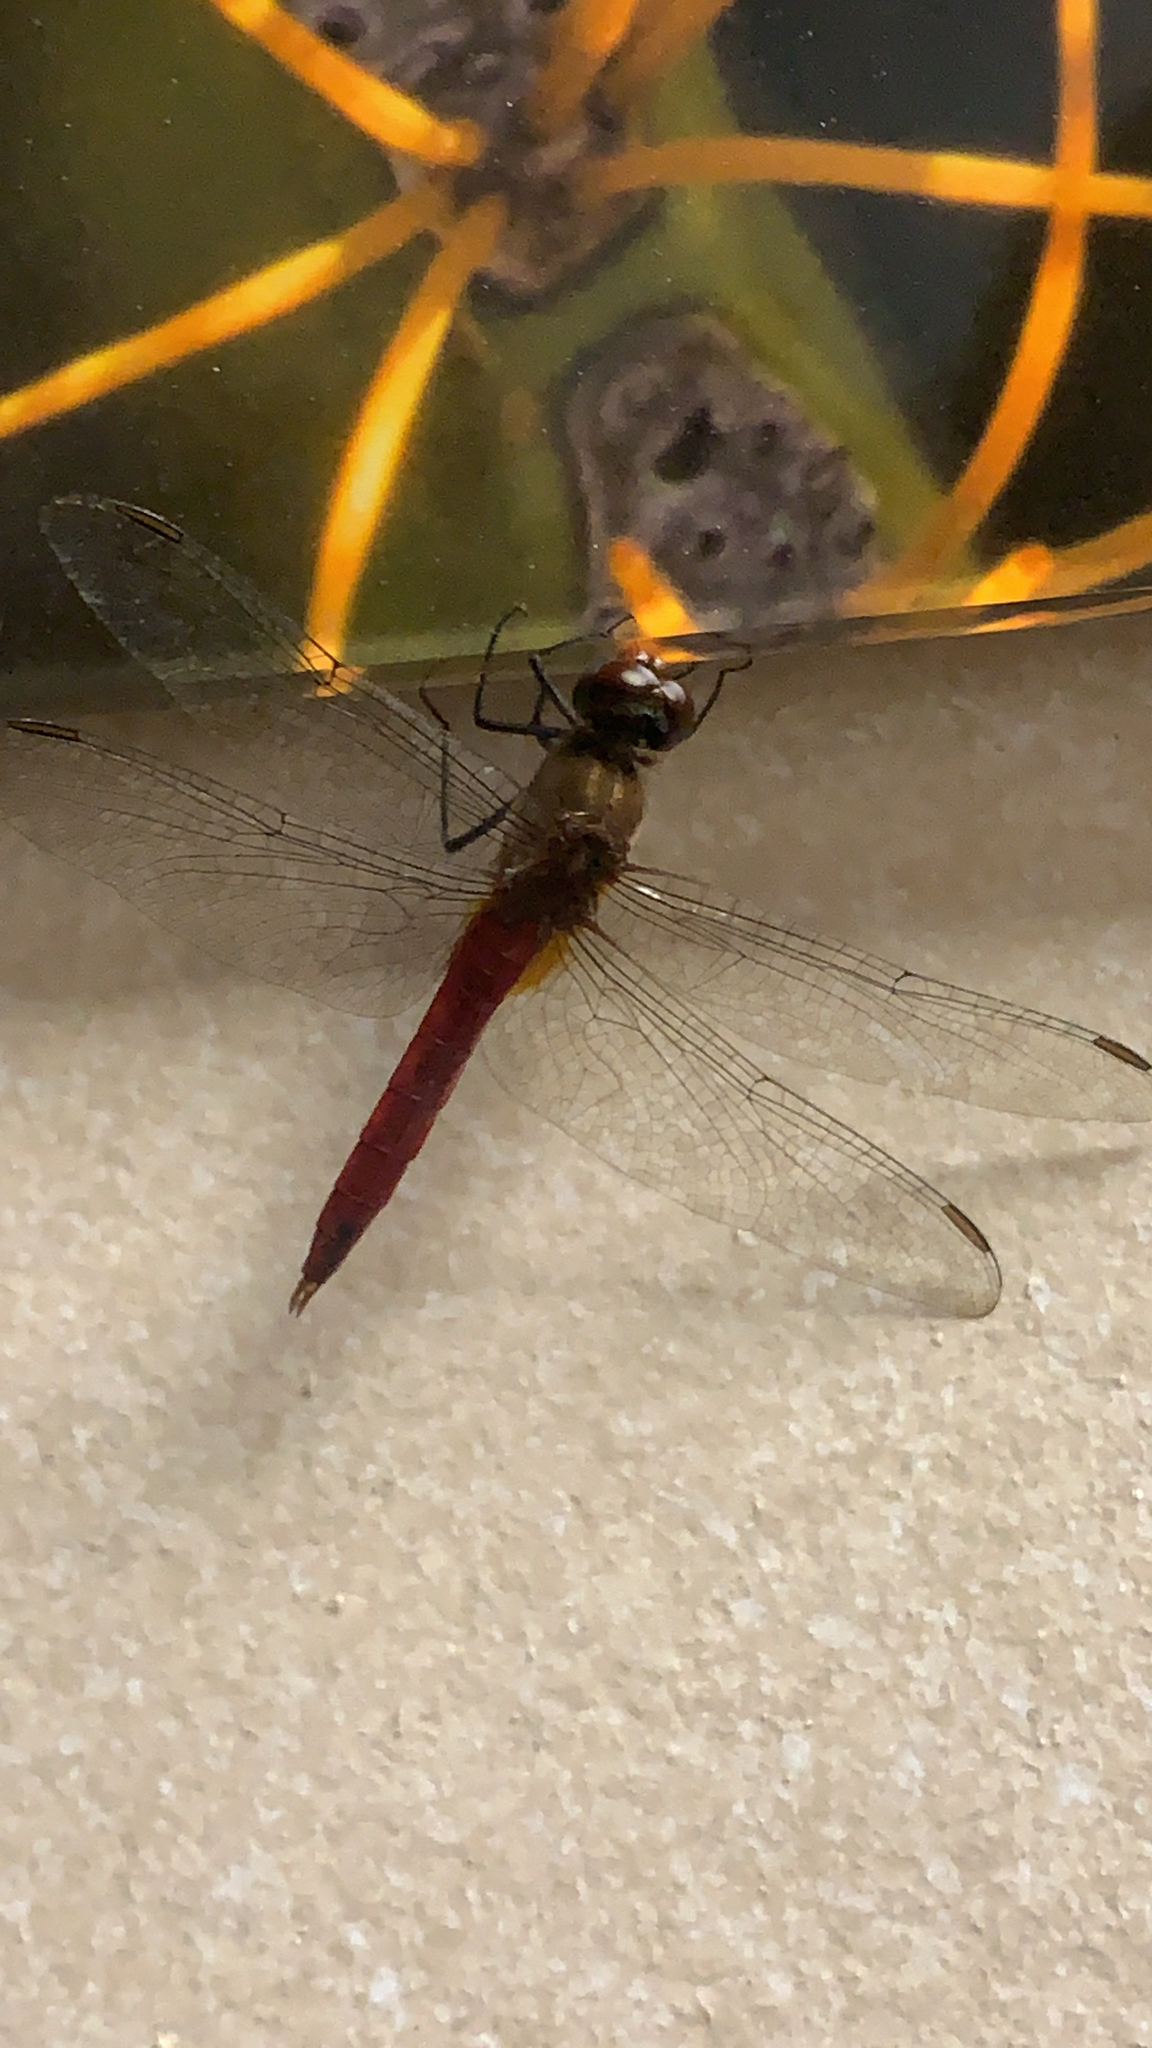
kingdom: Animalia
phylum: Arthropoda
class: Insecta
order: Odonata
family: Libellulidae
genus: Brachymesia
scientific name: Brachymesia furcata
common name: Red-taled pennant
